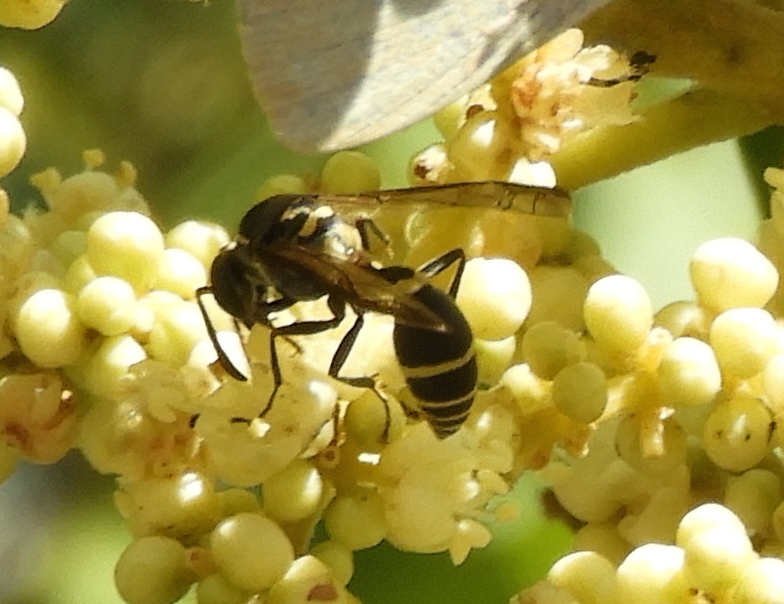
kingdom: Animalia
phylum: Arthropoda
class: Insecta
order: Hymenoptera
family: Eumenidae
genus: Polybia
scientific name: Polybia
